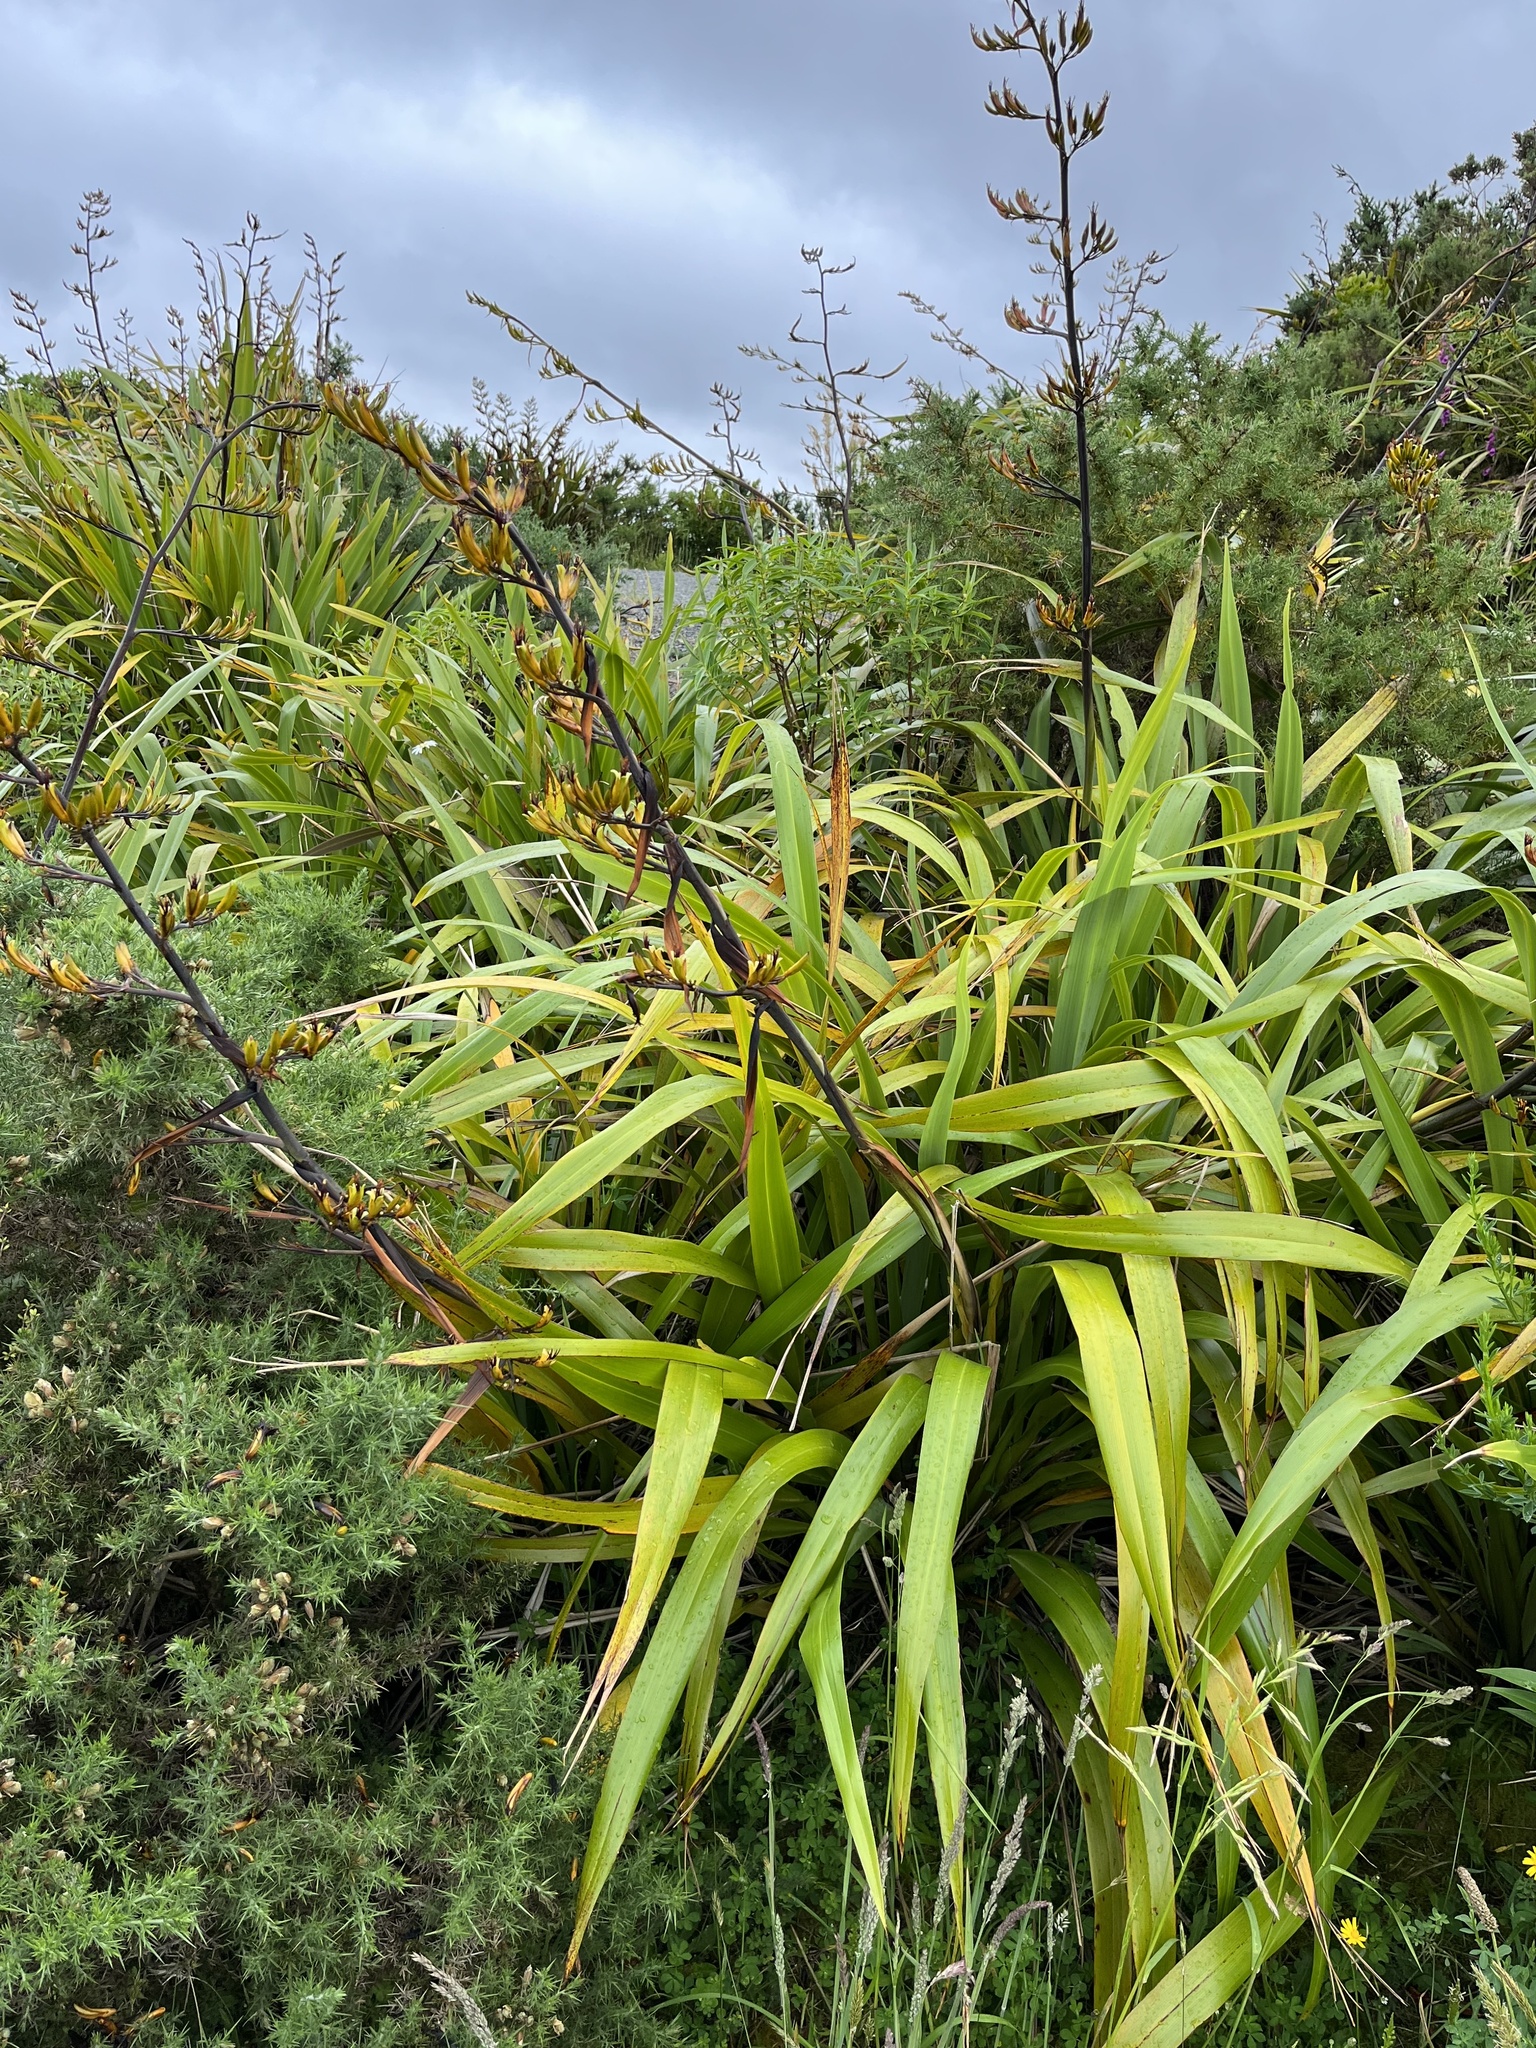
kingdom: Plantae
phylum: Tracheophyta
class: Liliopsida
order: Asparagales
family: Asphodelaceae
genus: Phormium
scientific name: Phormium colensoi
